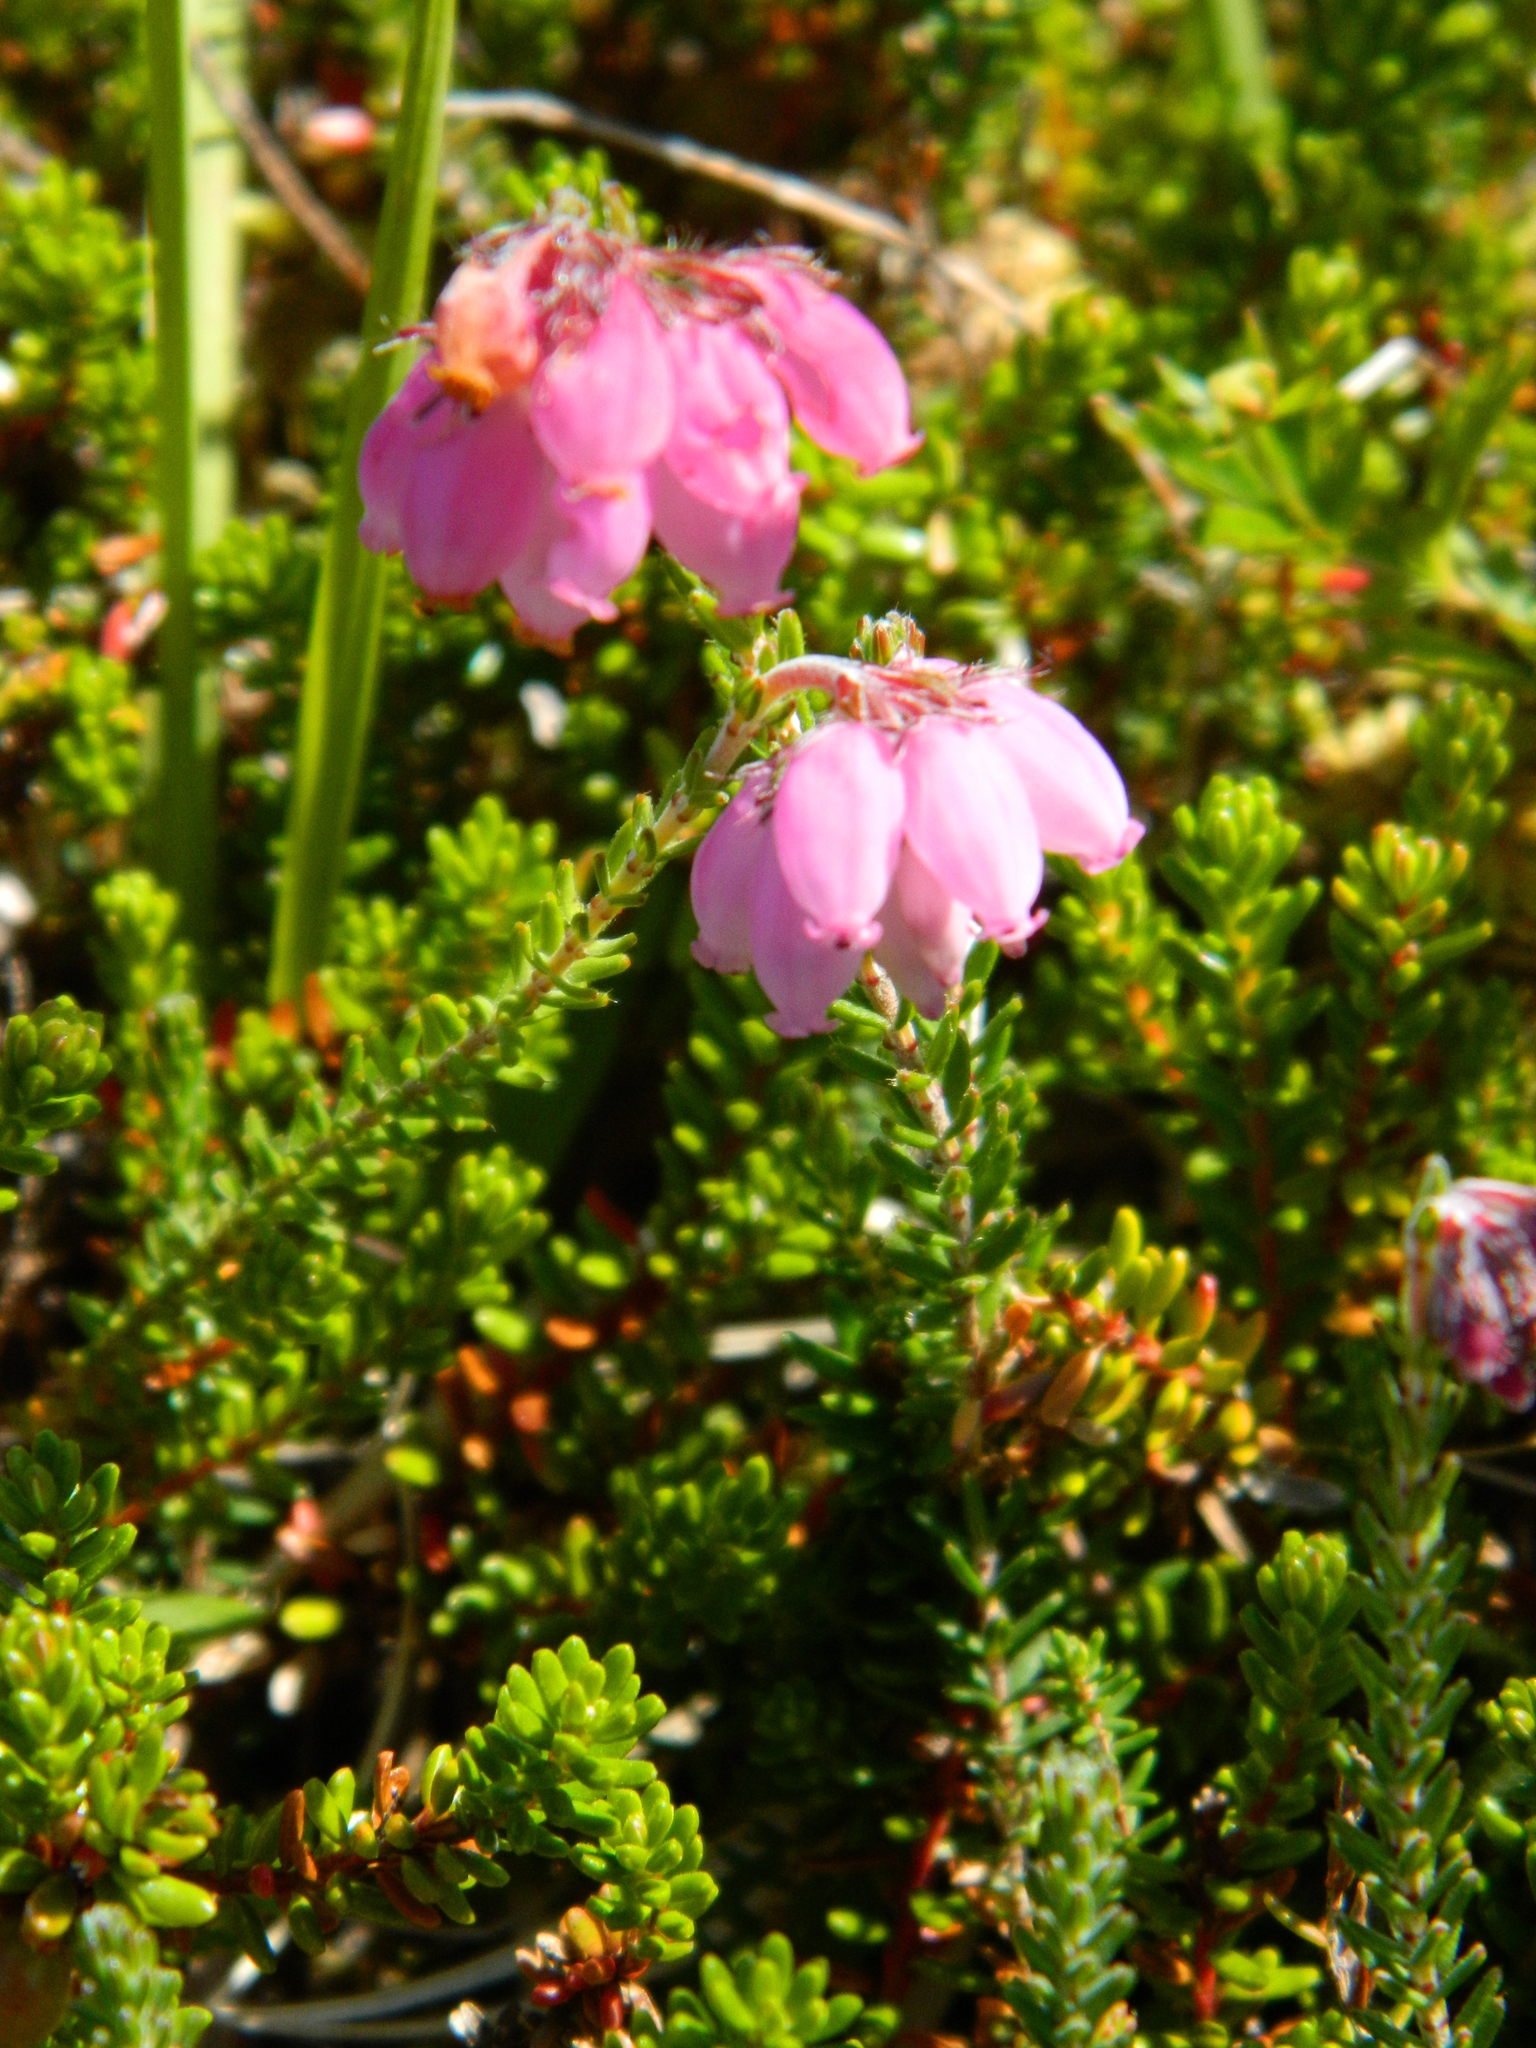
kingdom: Plantae
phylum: Tracheophyta
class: Magnoliopsida
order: Ericales
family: Ericaceae
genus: Erica
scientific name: Erica tetralix
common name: Cross-leaved heath
